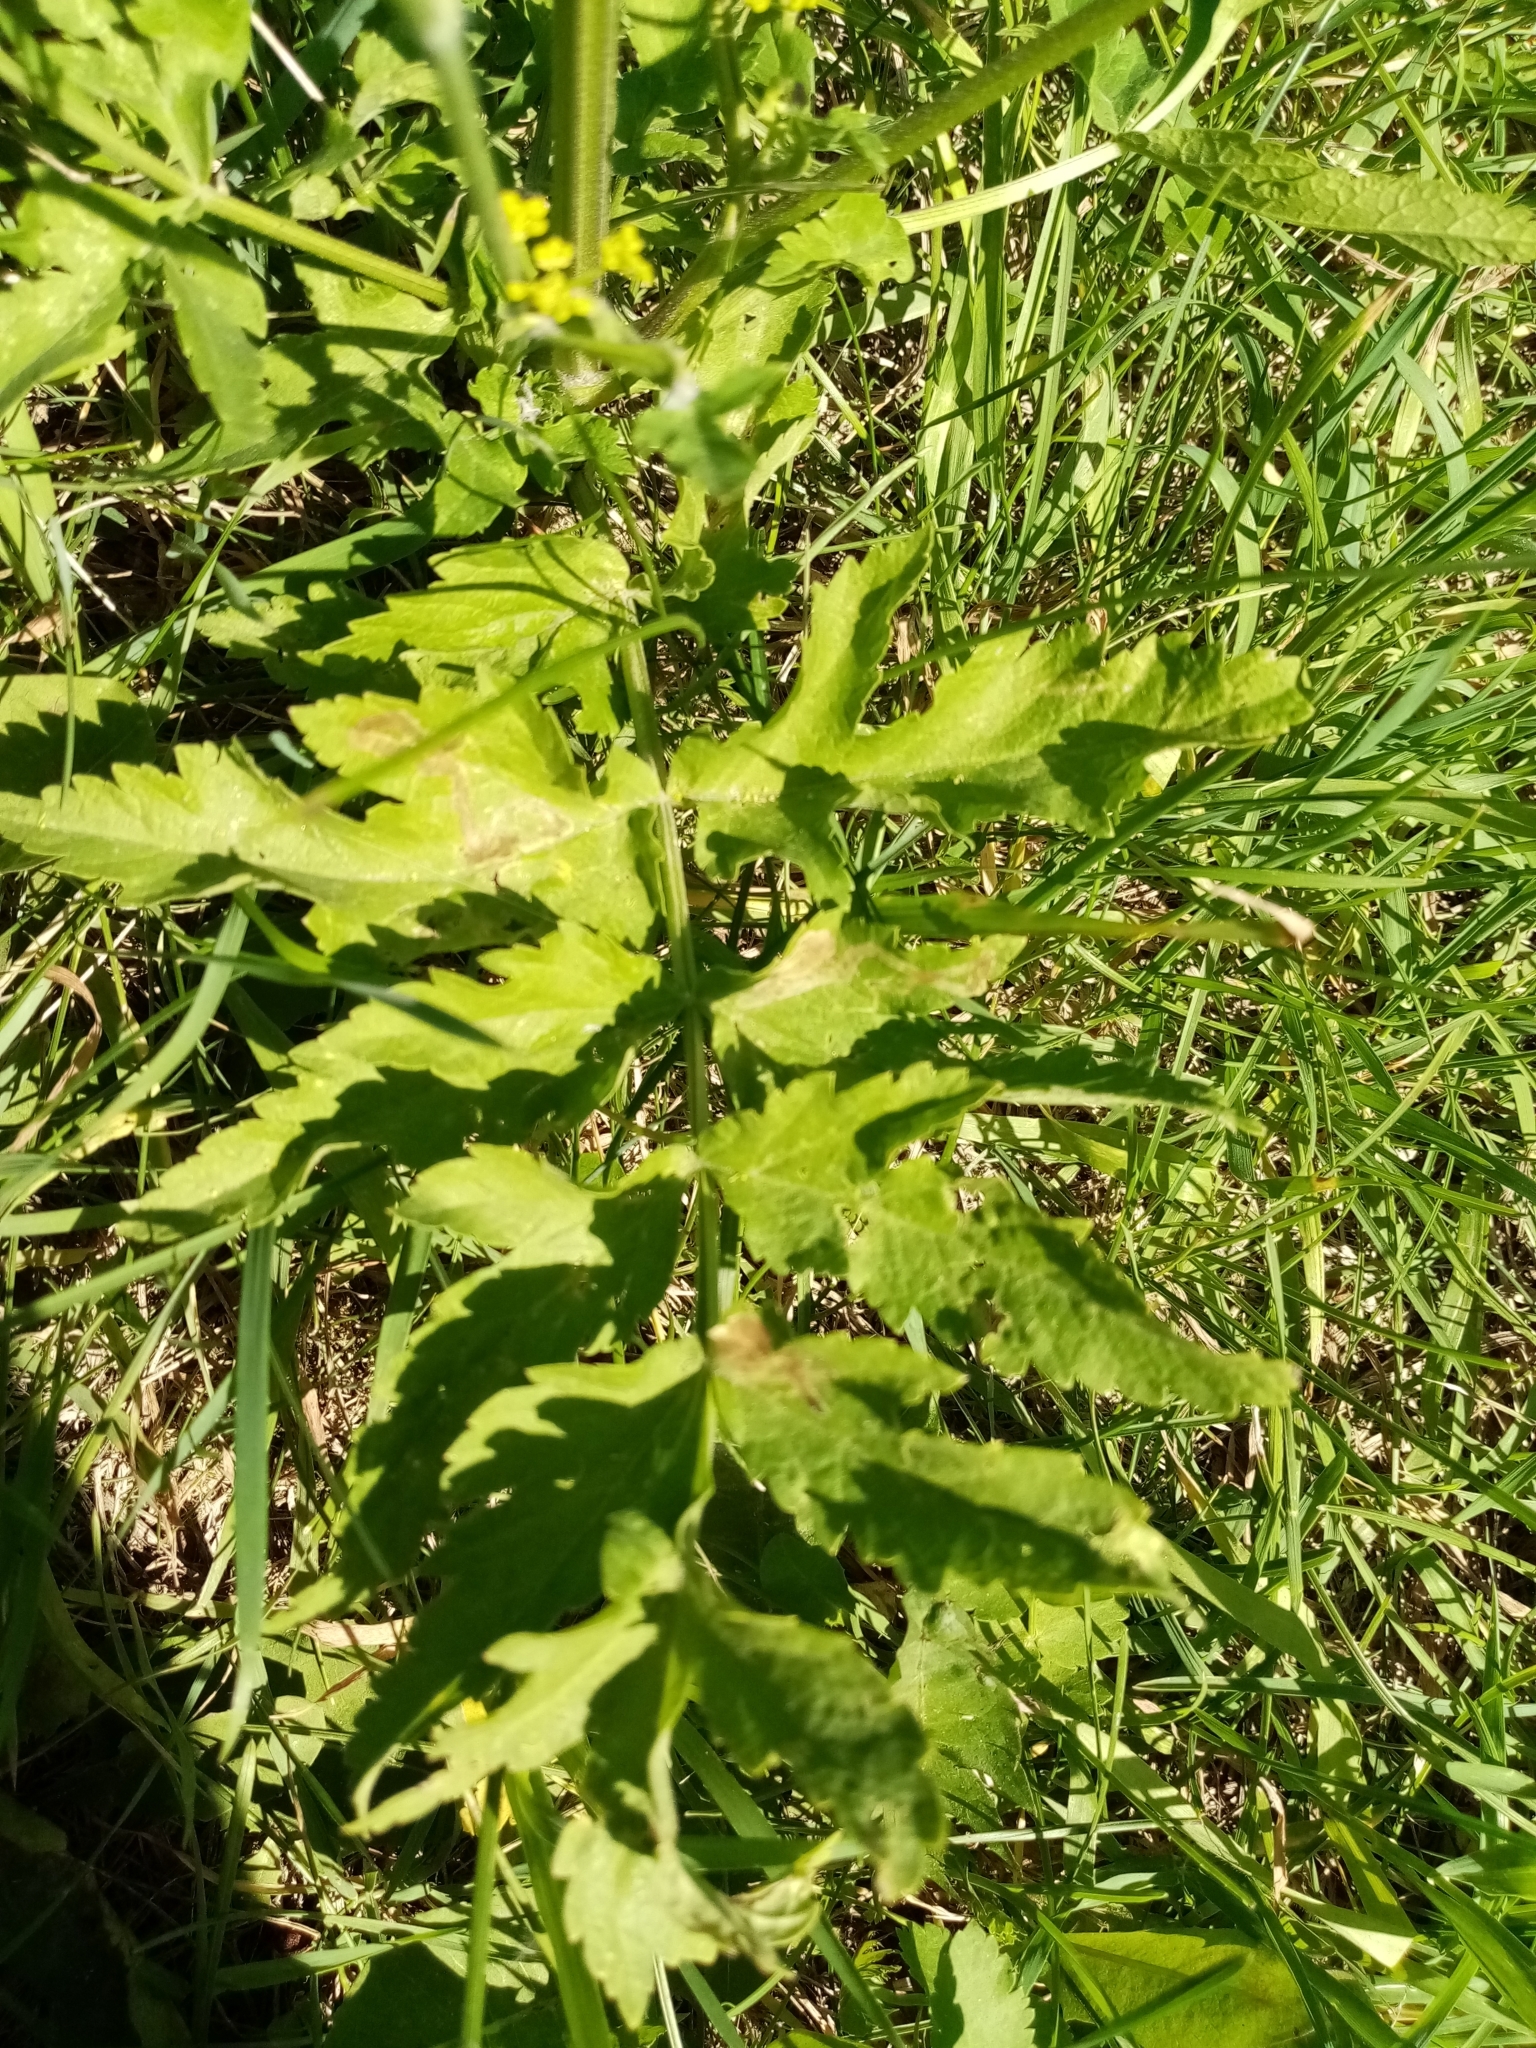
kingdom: Plantae
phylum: Tracheophyta
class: Magnoliopsida
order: Apiales
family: Apiaceae
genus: Pastinaca
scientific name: Pastinaca sativa
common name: Wild parsnip
